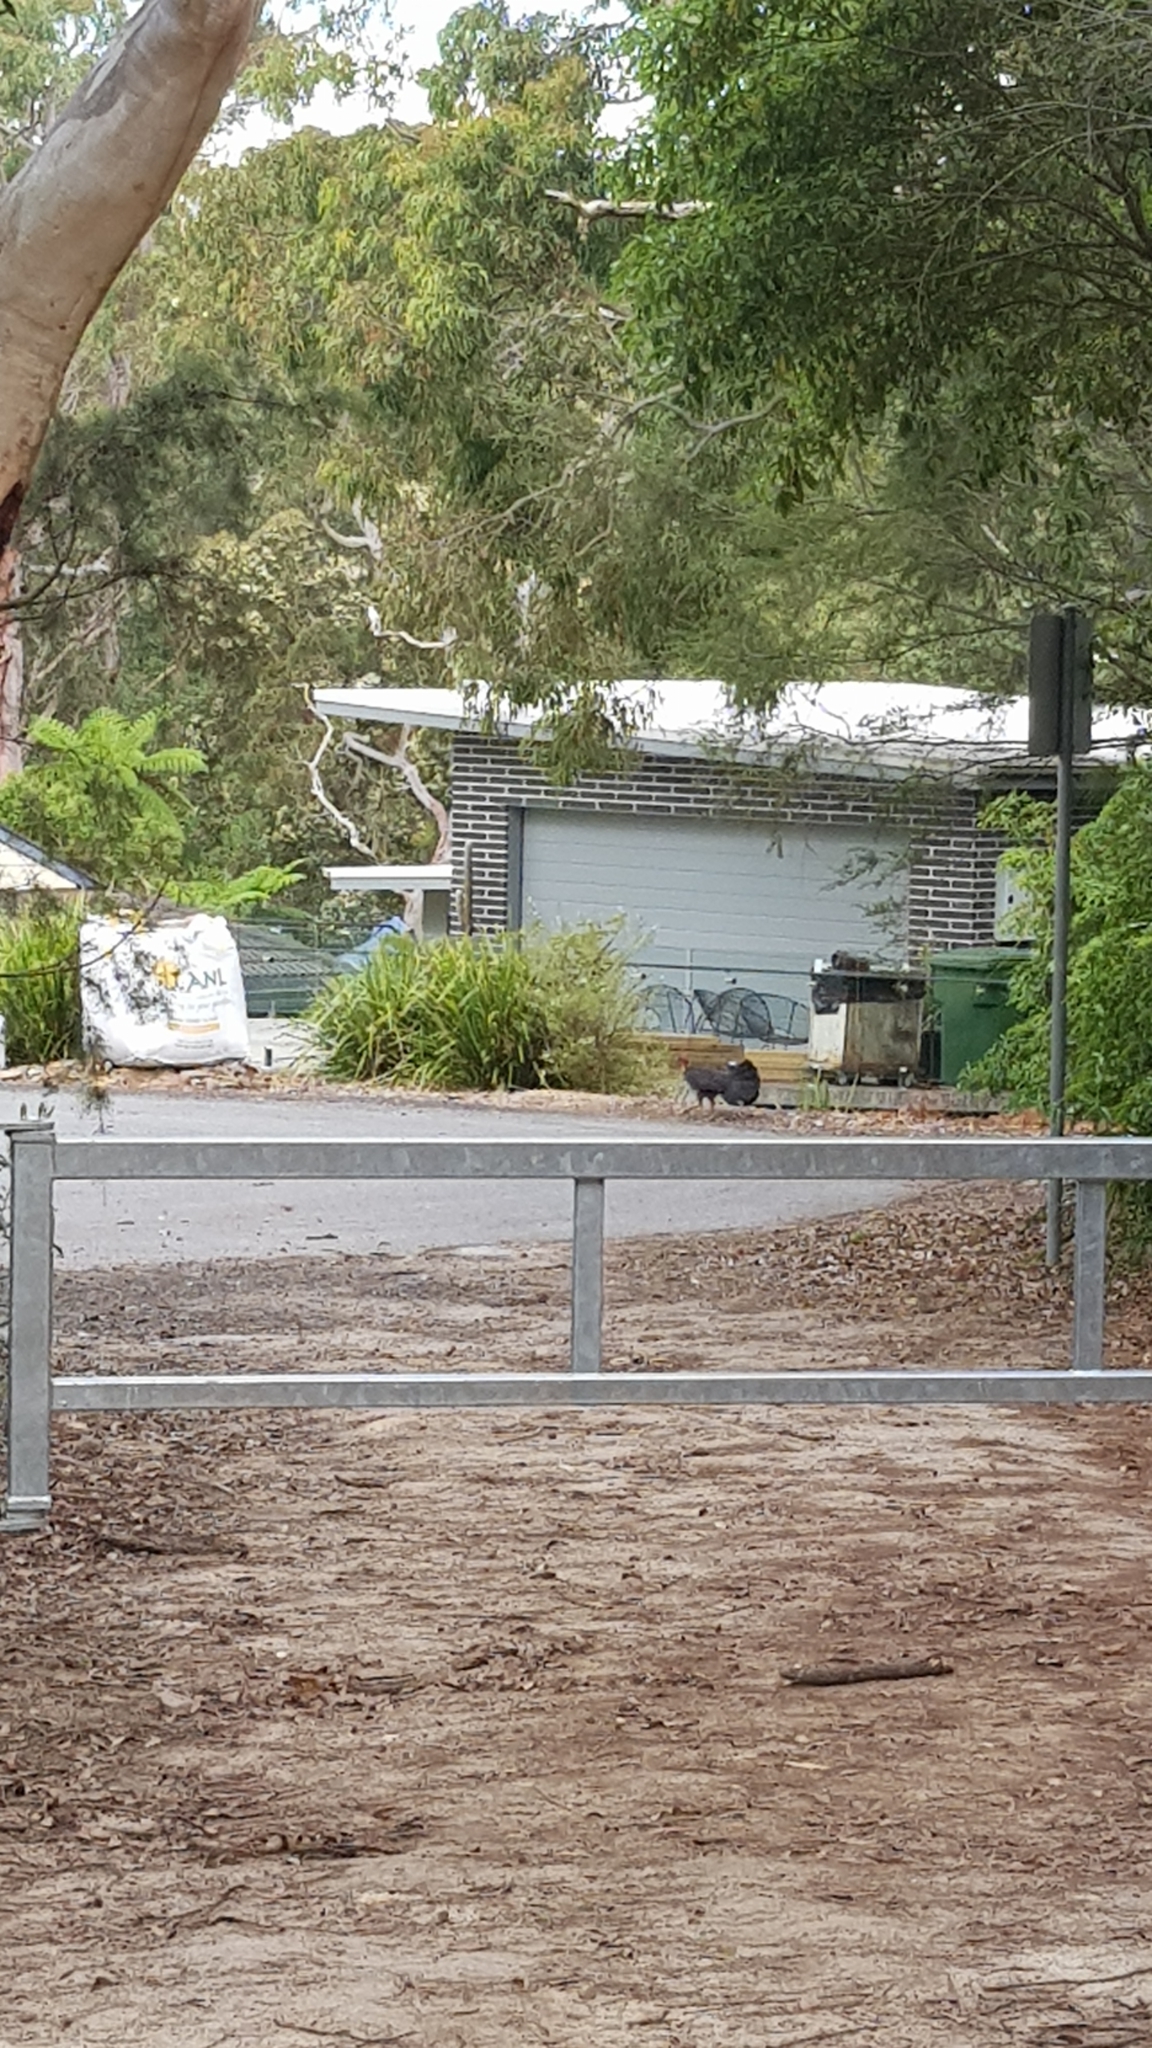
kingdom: Animalia
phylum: Chordata
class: Aves
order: Galliformes
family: Megapodiidae
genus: Alectura
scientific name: Alectura lathami
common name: Australian brushturkey
